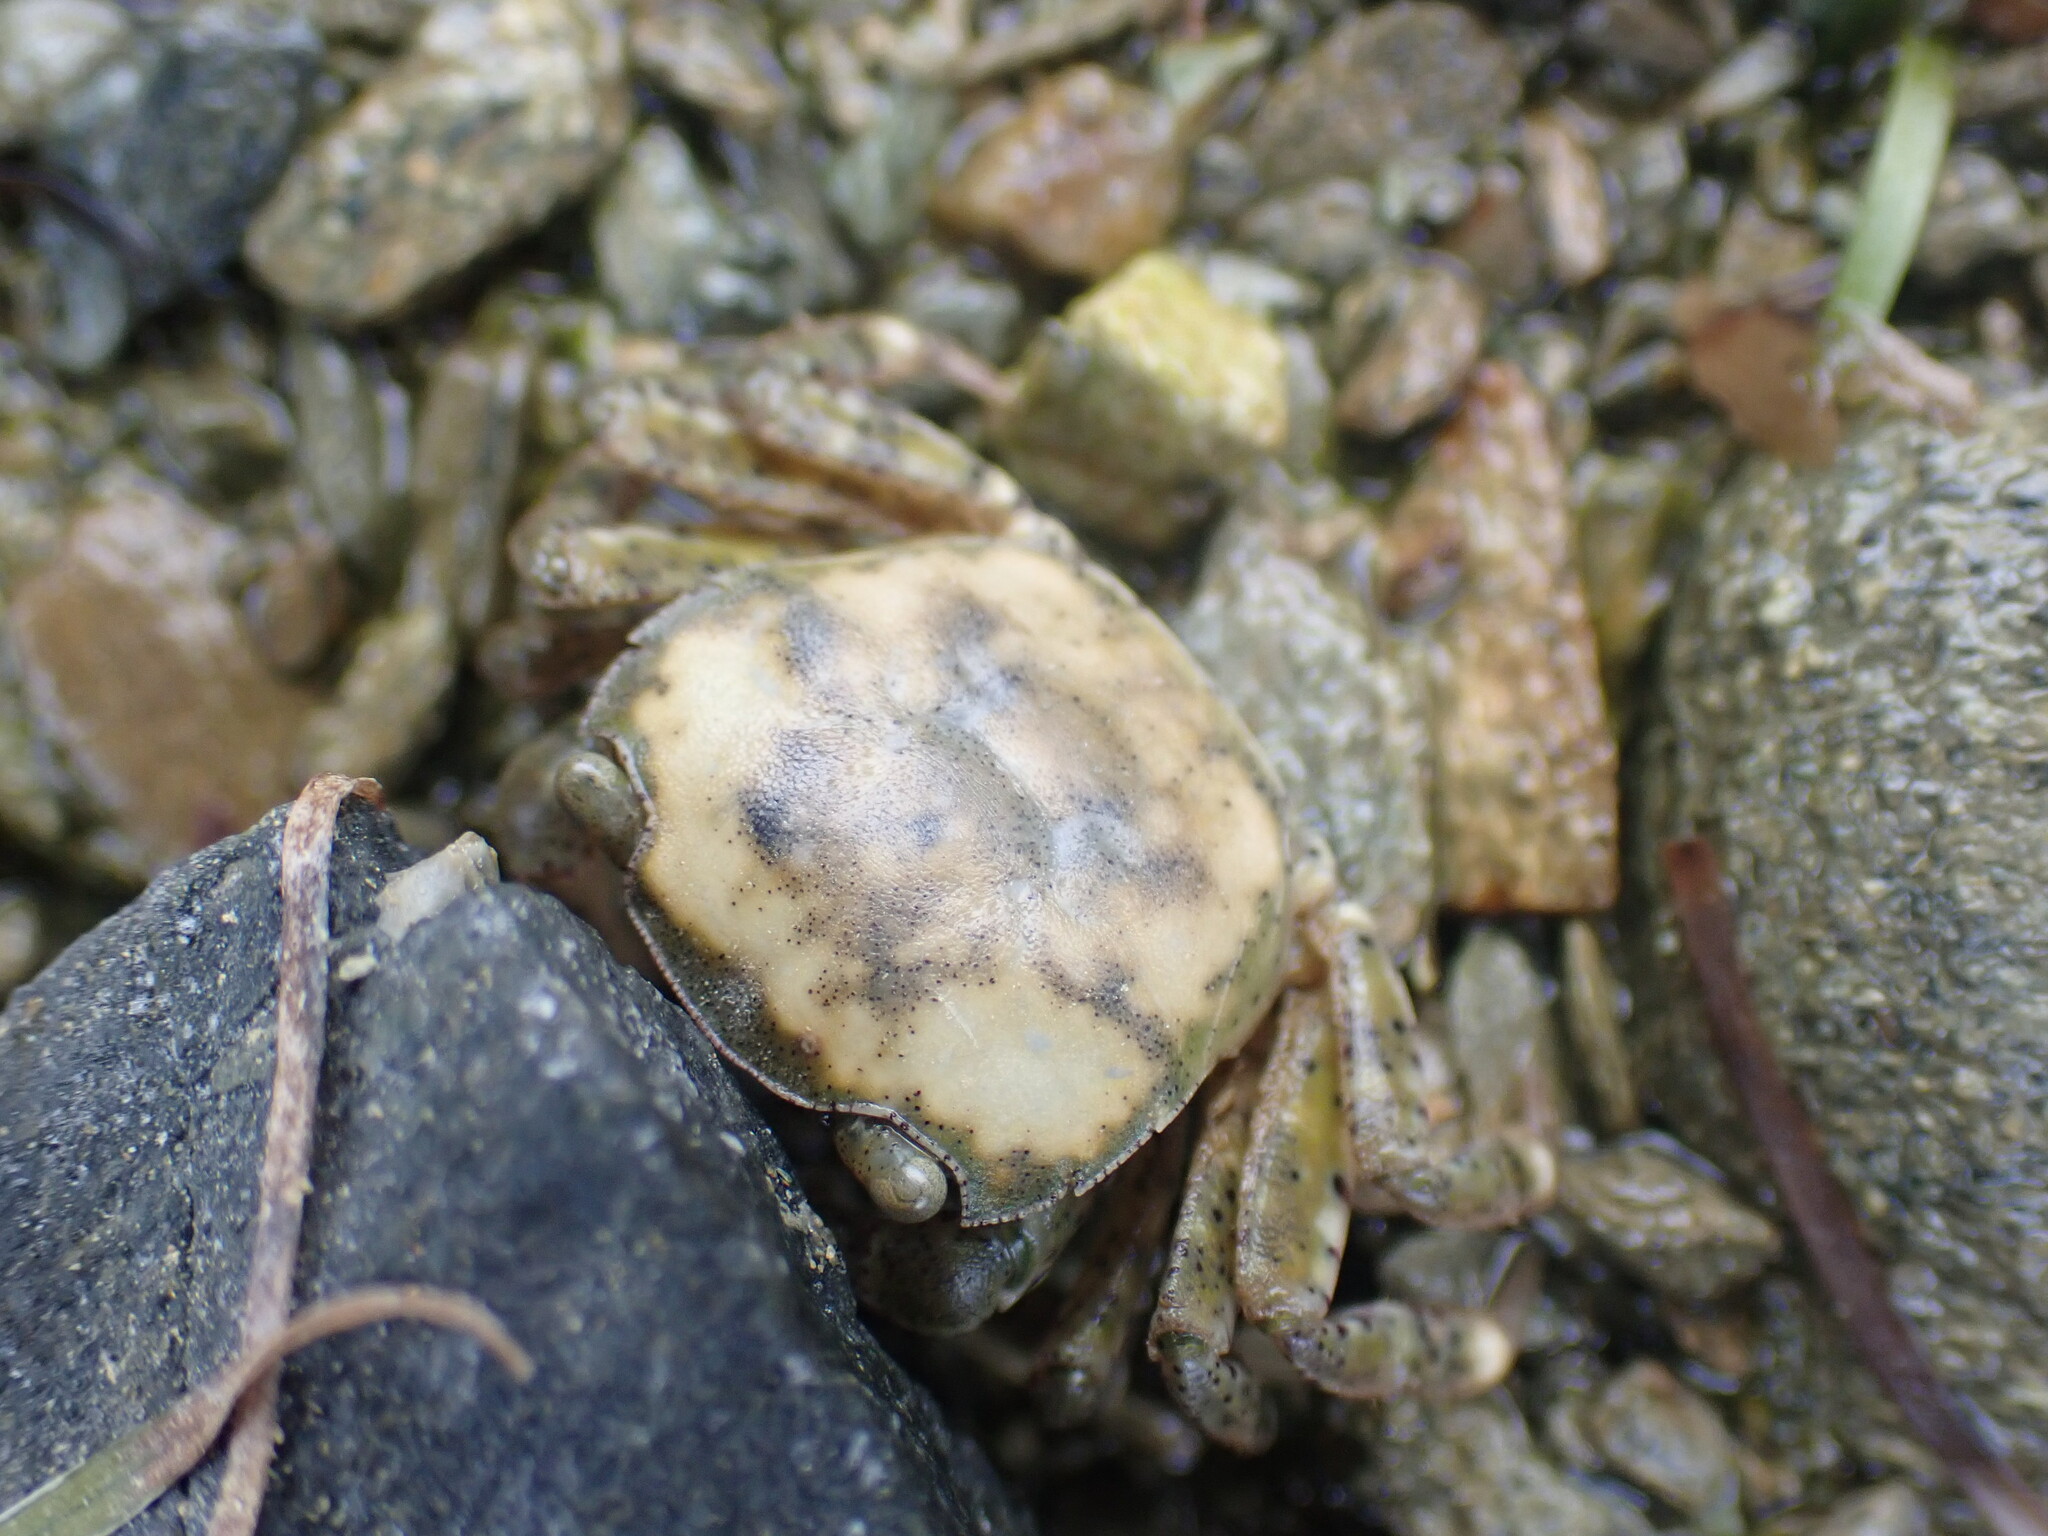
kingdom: Animalia
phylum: Arthropoda
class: Malacostraca
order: Decapoda
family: Varunidae
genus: Hemigrapsus
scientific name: Hemigrapsus crenulatus
